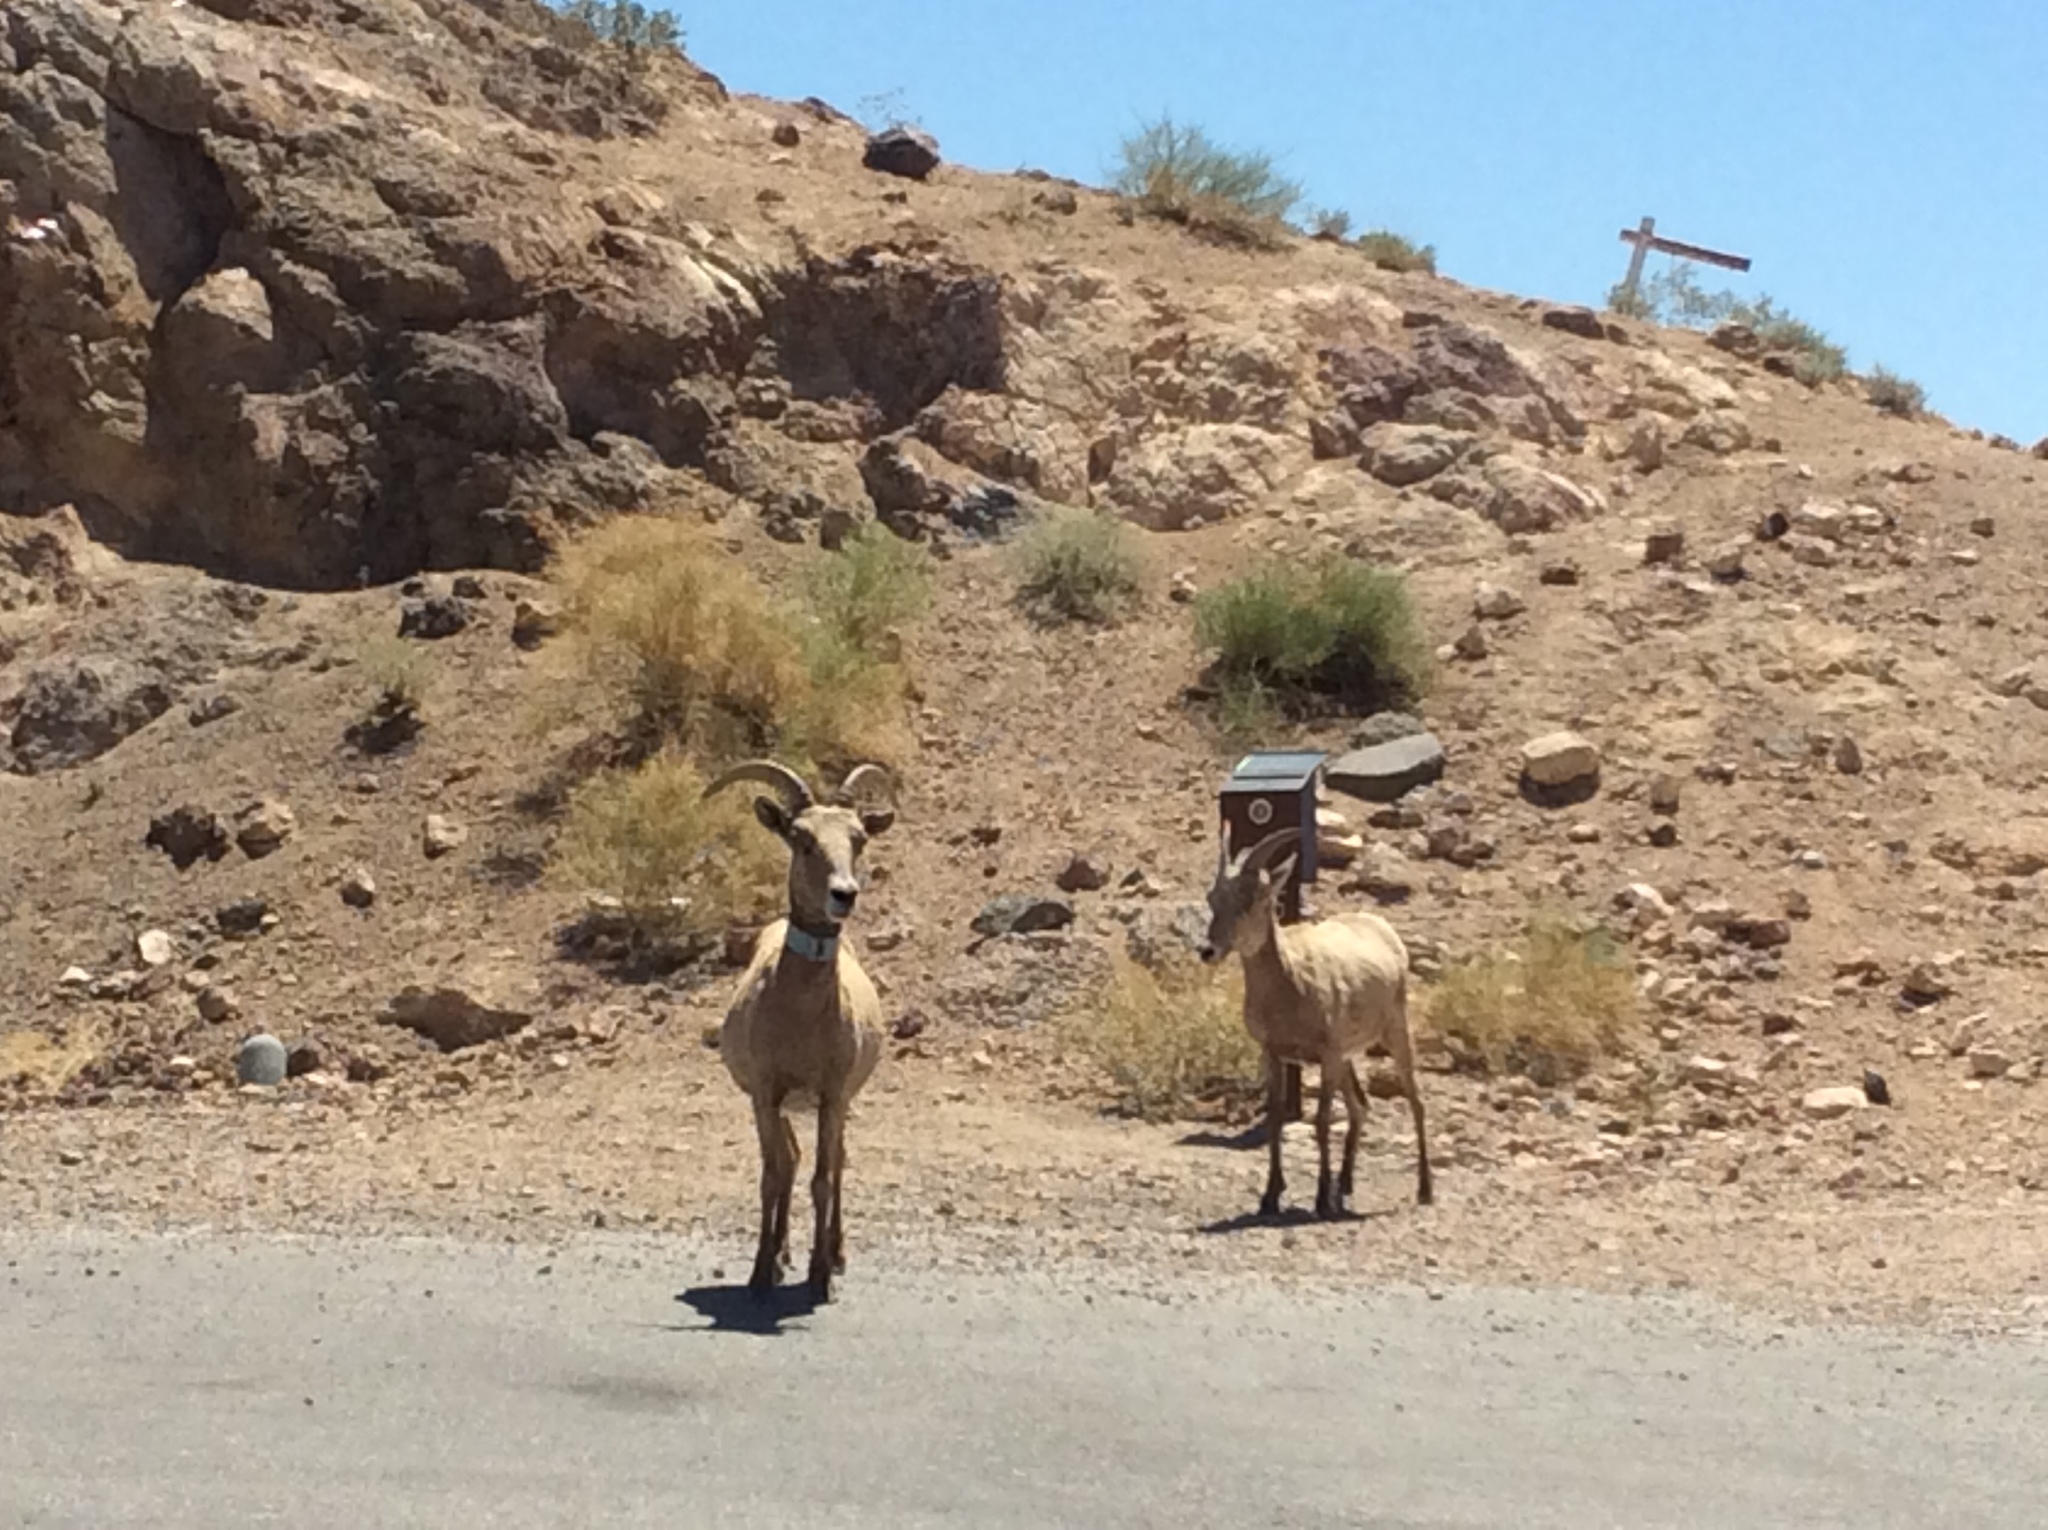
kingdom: Animalia
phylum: Chordata
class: Mammalia
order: Artiodactyla
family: Bovidae
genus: Ovis
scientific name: Ovis canadensis
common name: Bighorn sheep
